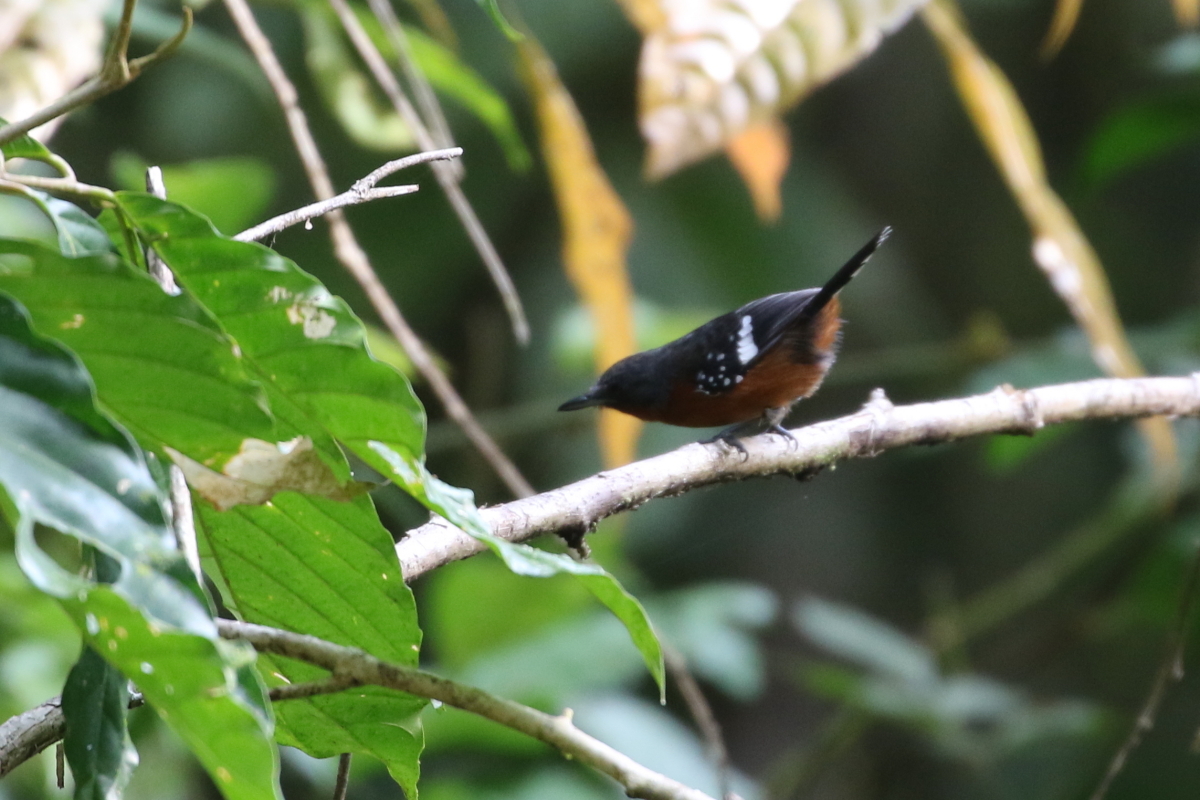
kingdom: Animalia
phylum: Chordata
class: Aves
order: Passeriformes
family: Thamnophilidae
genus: Microrhopias
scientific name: Microrhopias quixensis
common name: Dot-winged antwren
